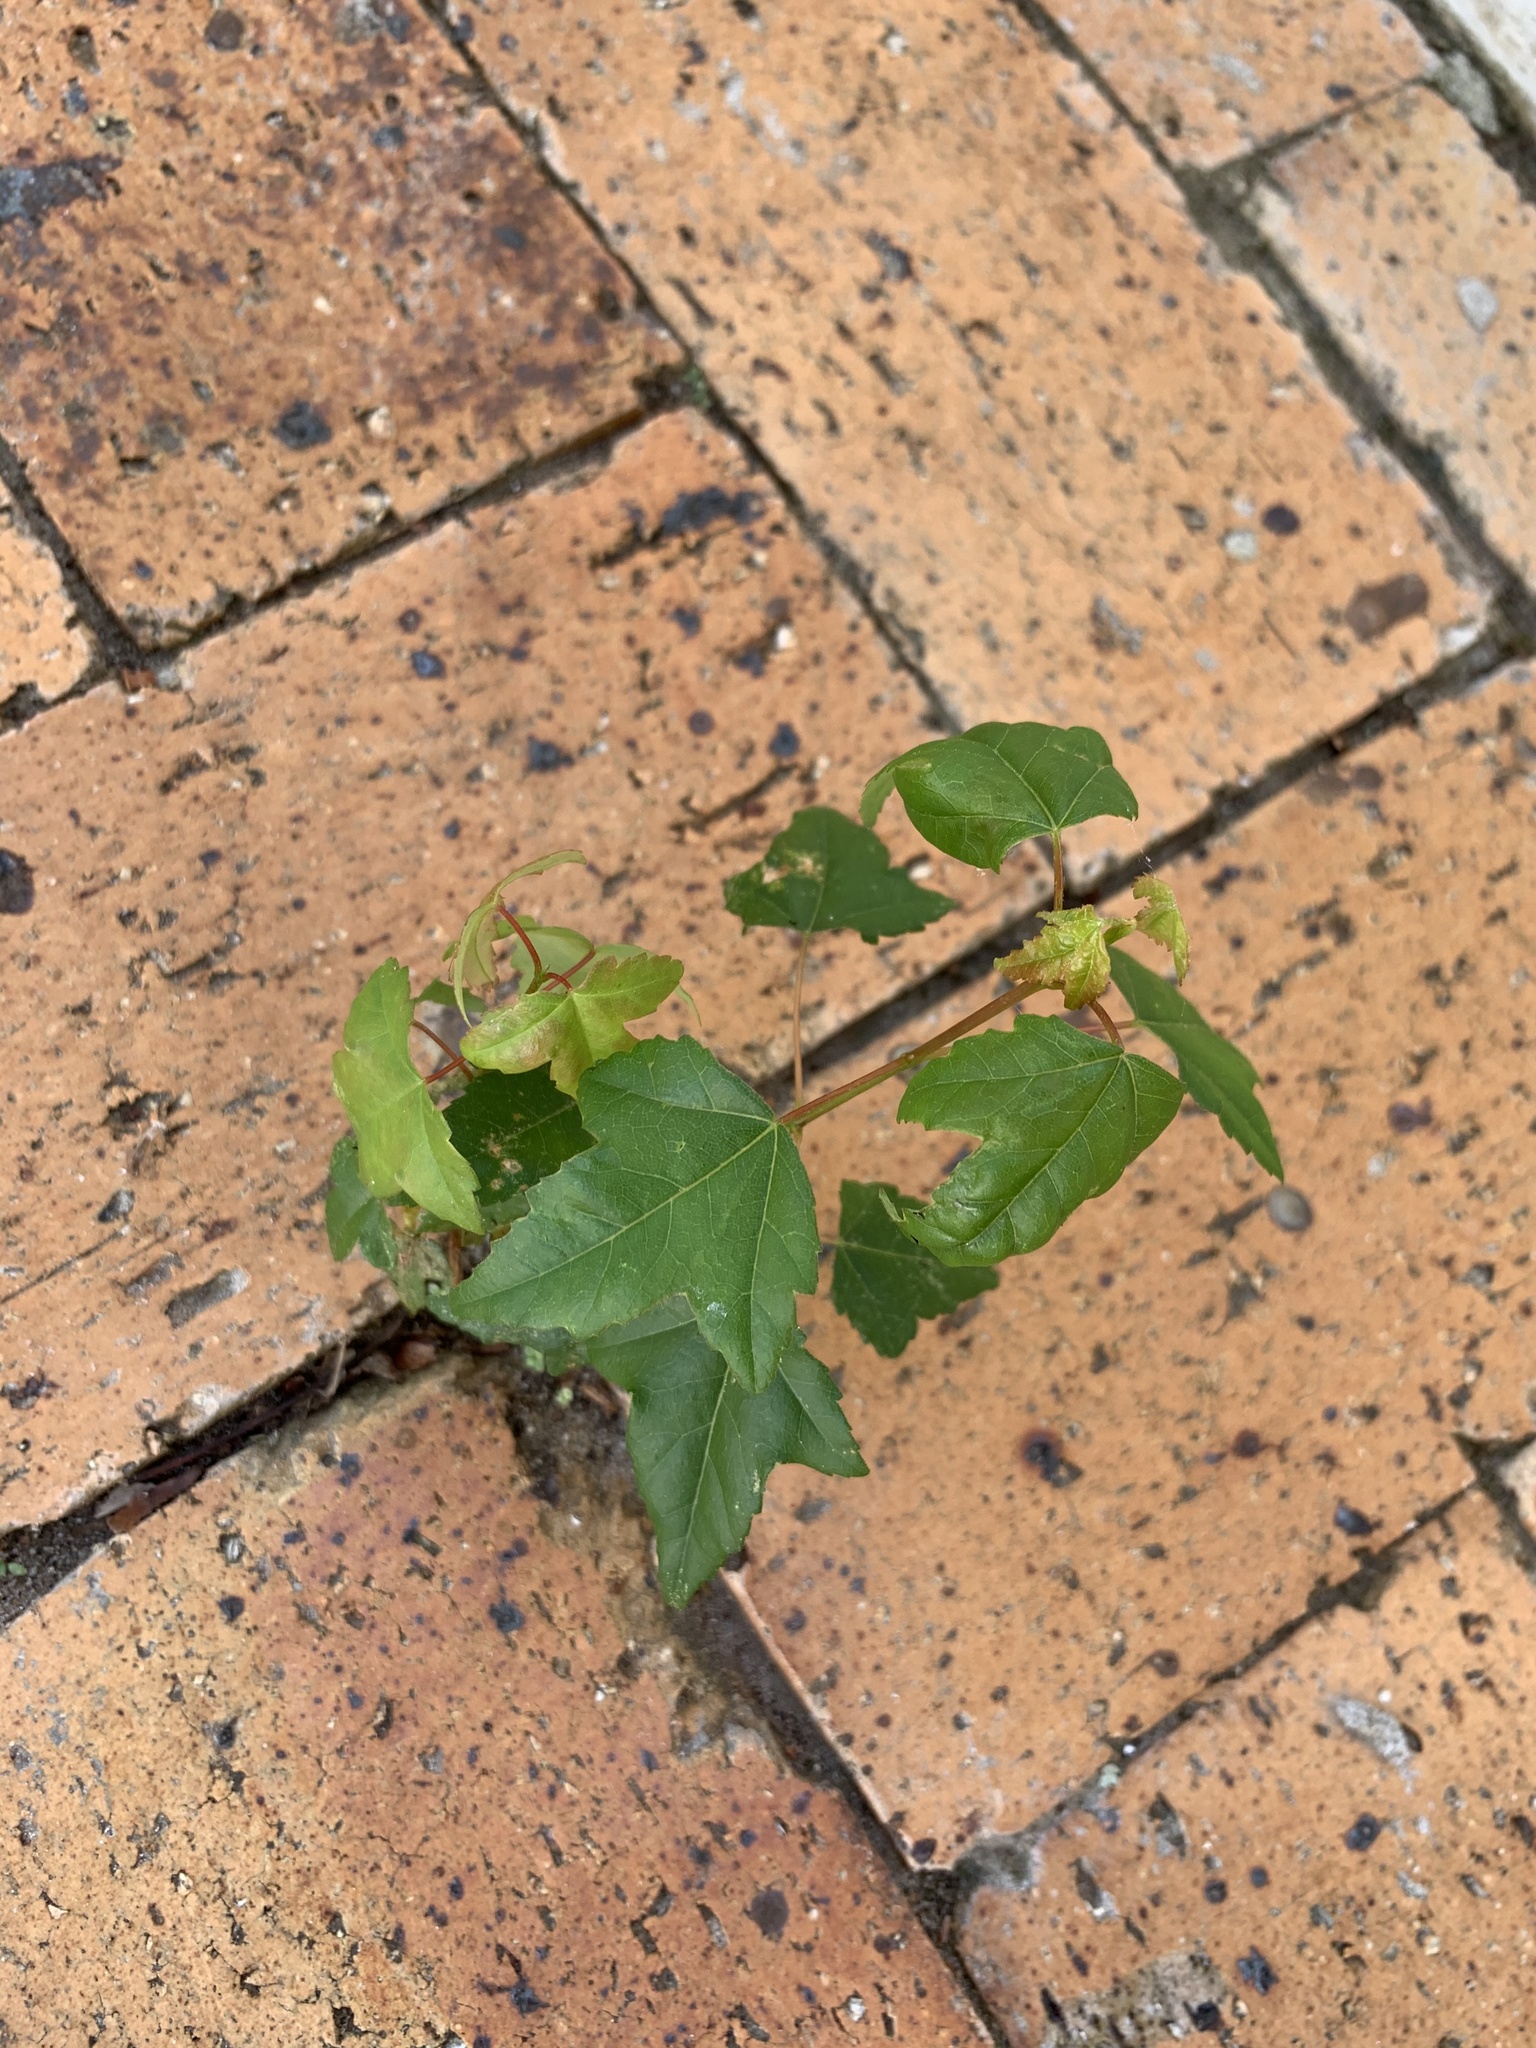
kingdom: Plantae
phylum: Tracheophyta
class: Magnoliopsida
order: Saxifragales
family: Altingiaceae
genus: Liquidambar
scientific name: Liquidambar styraciflua
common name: Sweet gum
